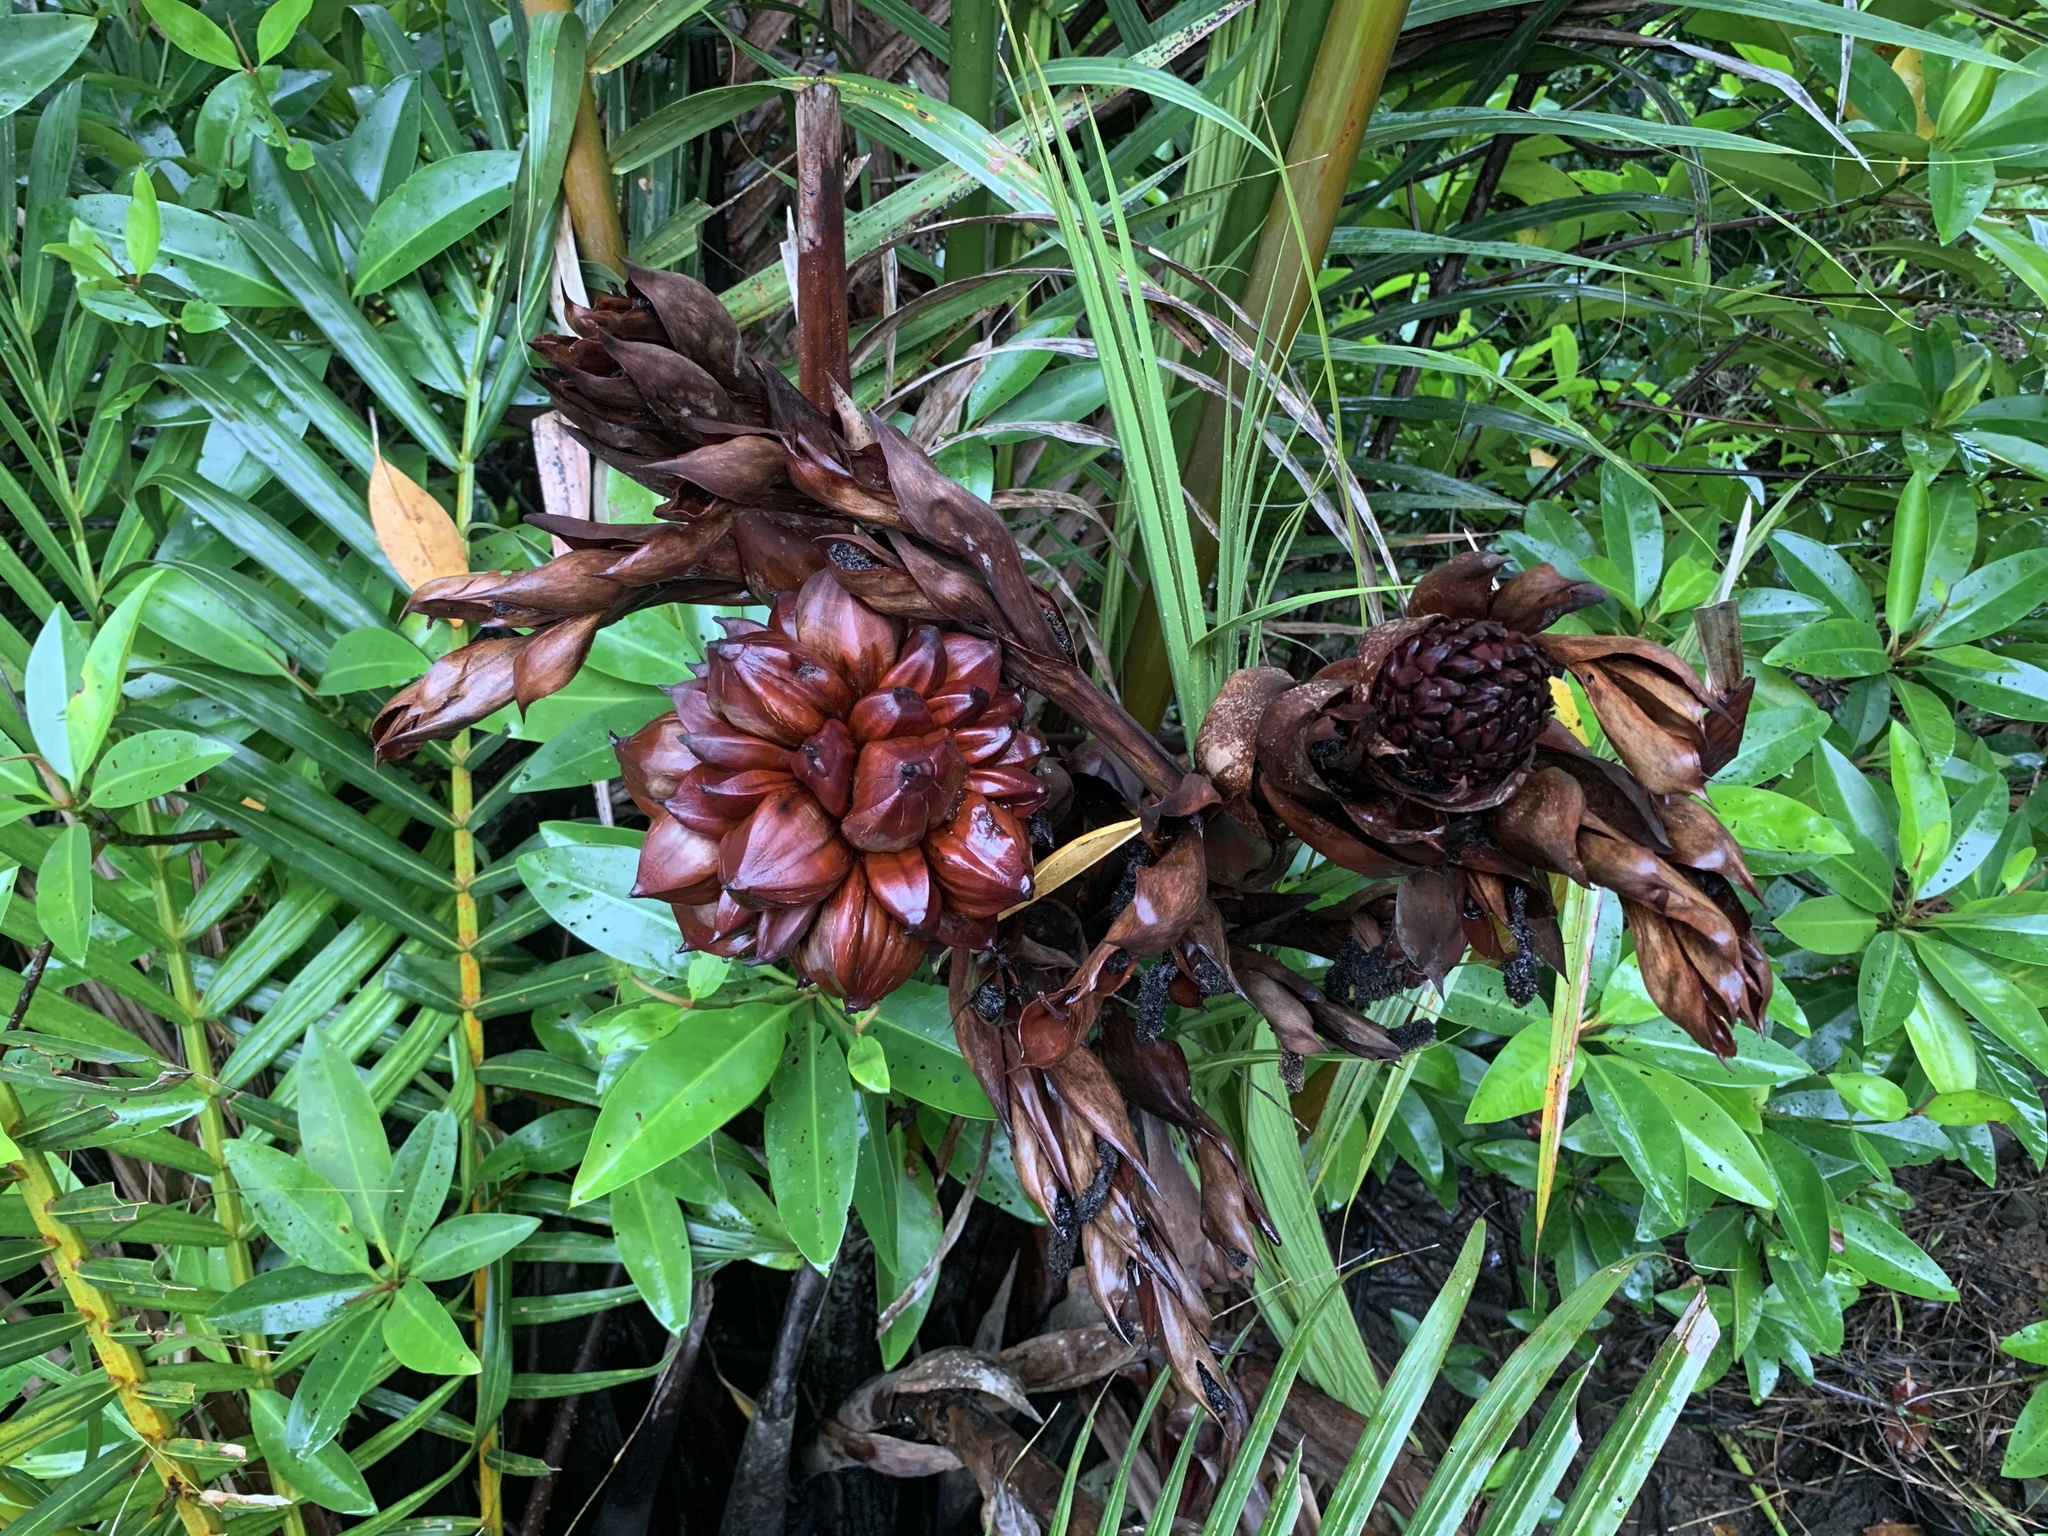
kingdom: Plantae
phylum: Tracheophyta
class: Liliopsida
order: Arecales
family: Arecaceae
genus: Nypa
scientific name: Nypa fruticans
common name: Mangrove palm
